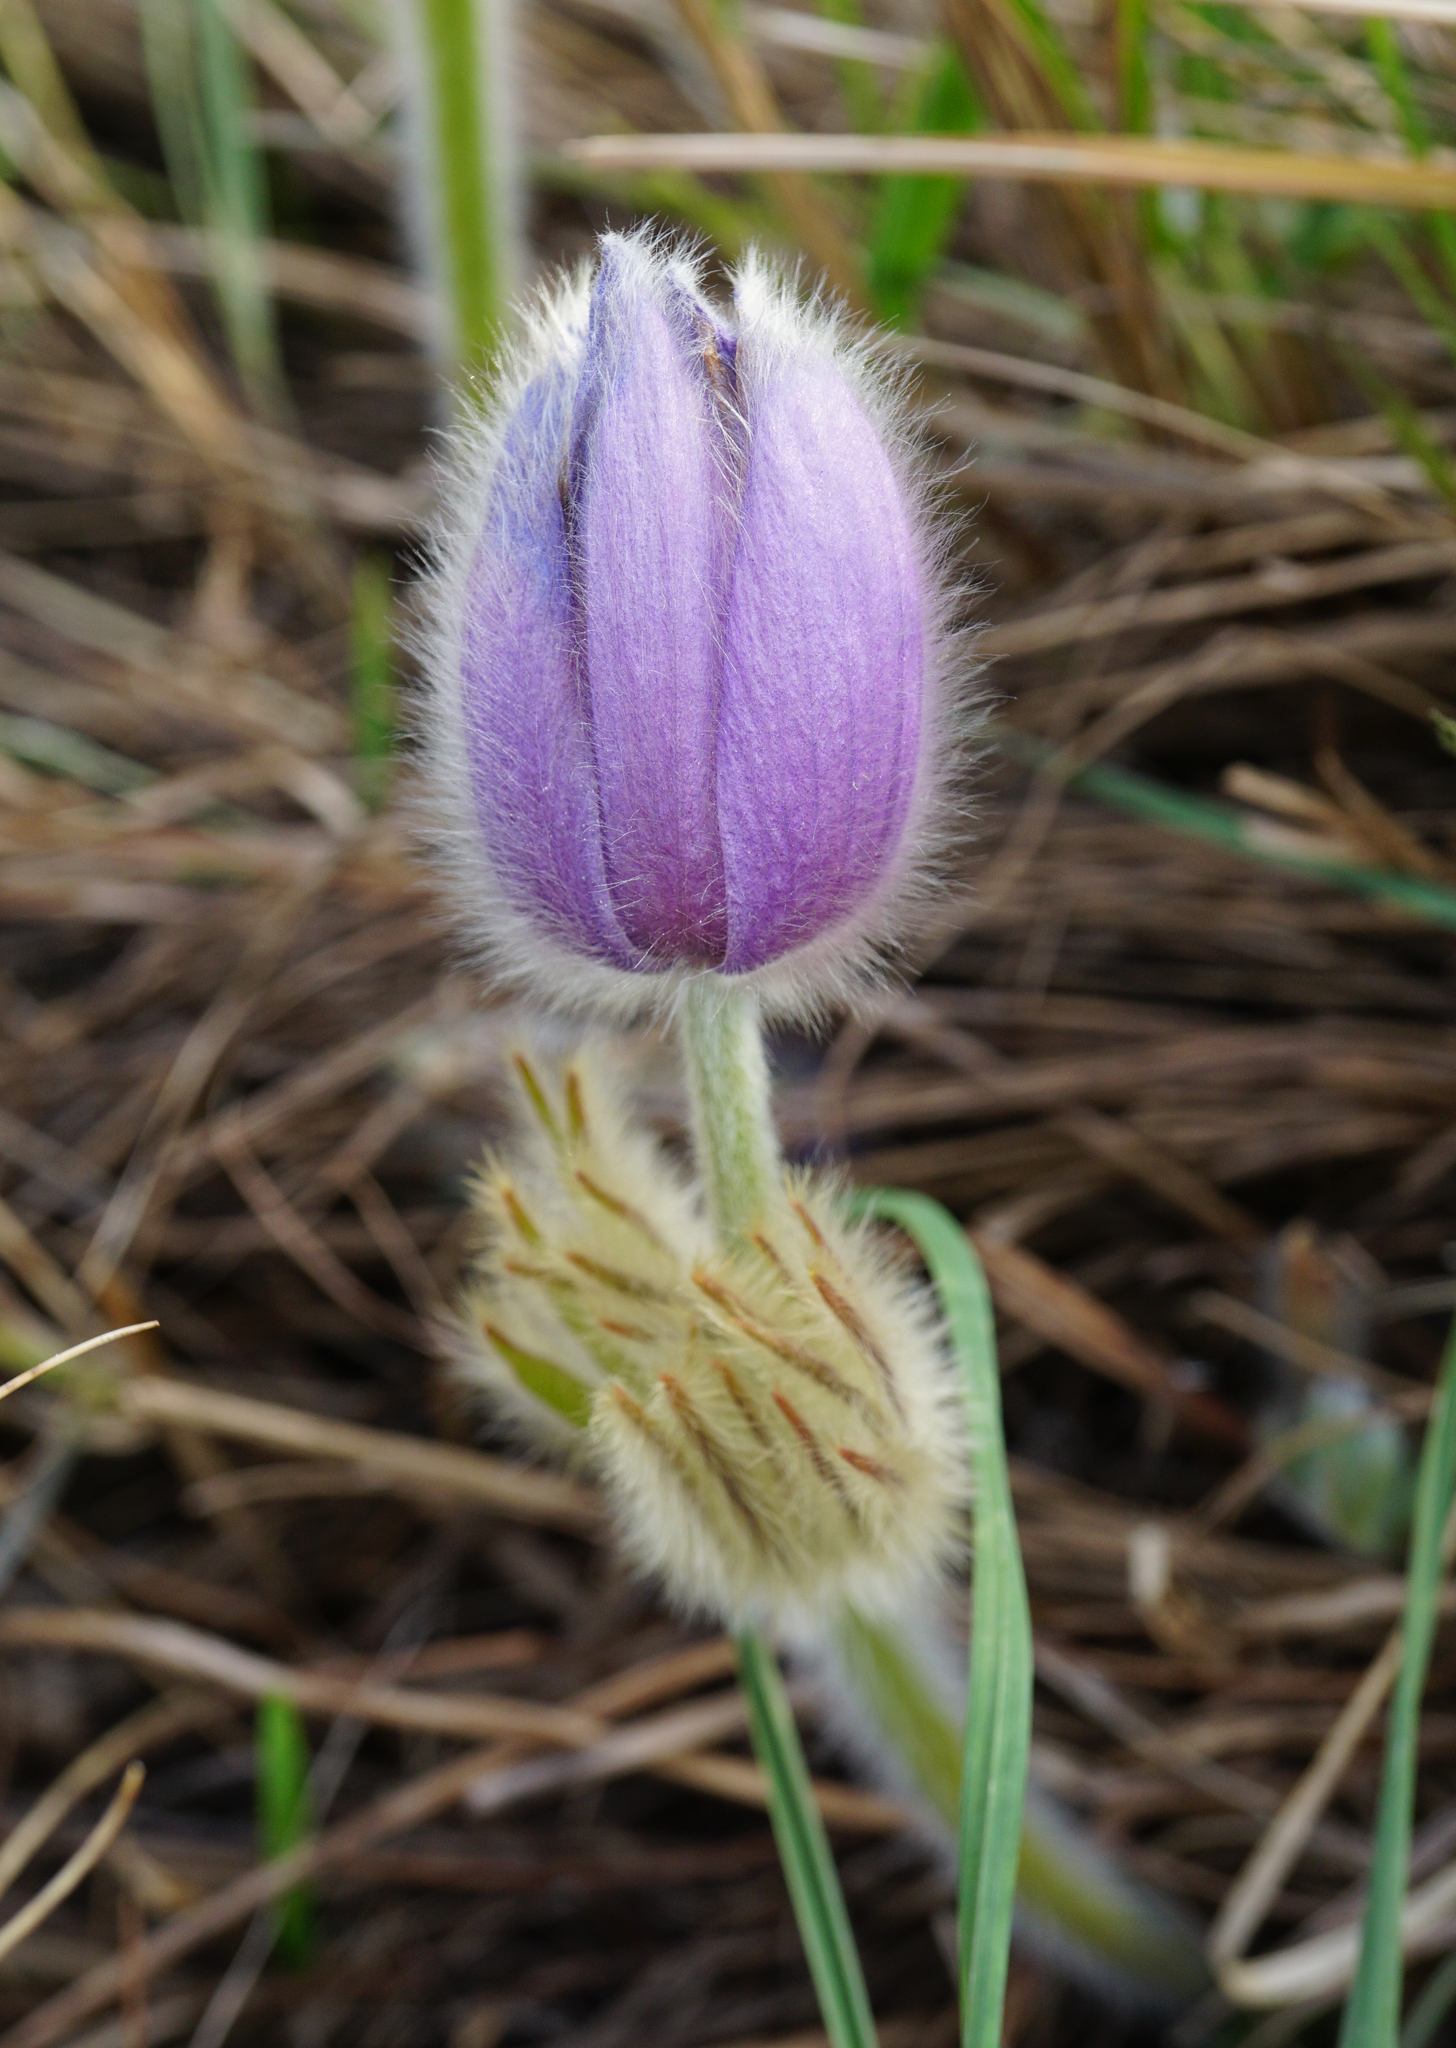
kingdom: Plantae
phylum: Tracheophyta
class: Magnoliopsida
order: Ranunculales
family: Ranunculaceae
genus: Pulsatilla
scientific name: Pulsatilla grandis
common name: Greater pasque flower
